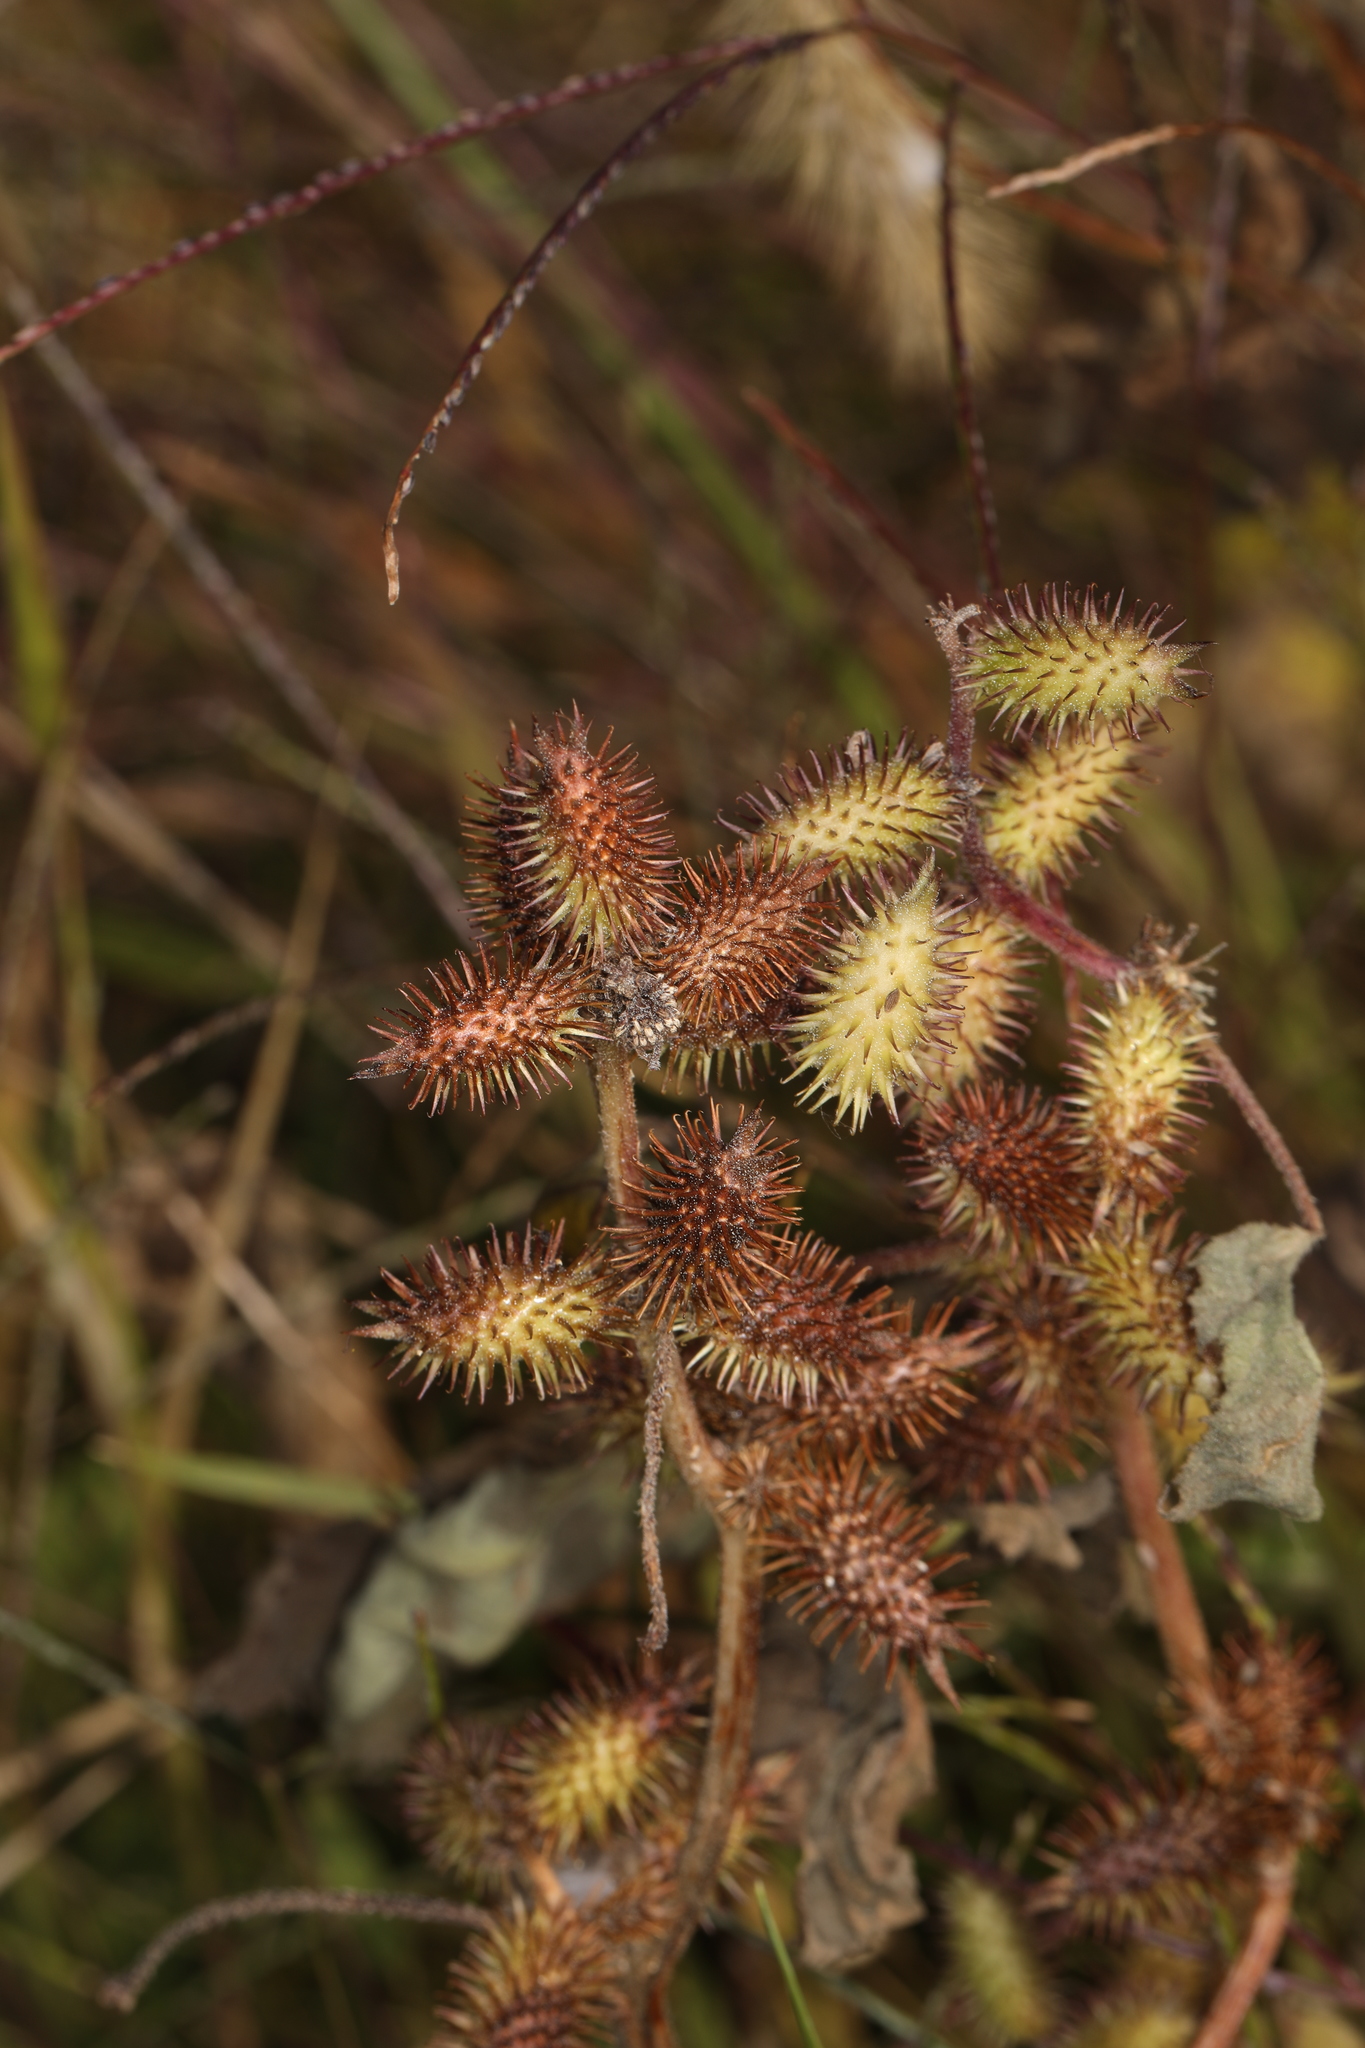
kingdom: Plantae
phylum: Tracheophyta
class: Magnoliopsida
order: Asterales
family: Asteraceae
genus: Xanthium
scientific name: Xanthium strumarium
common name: Rough cocklebur
